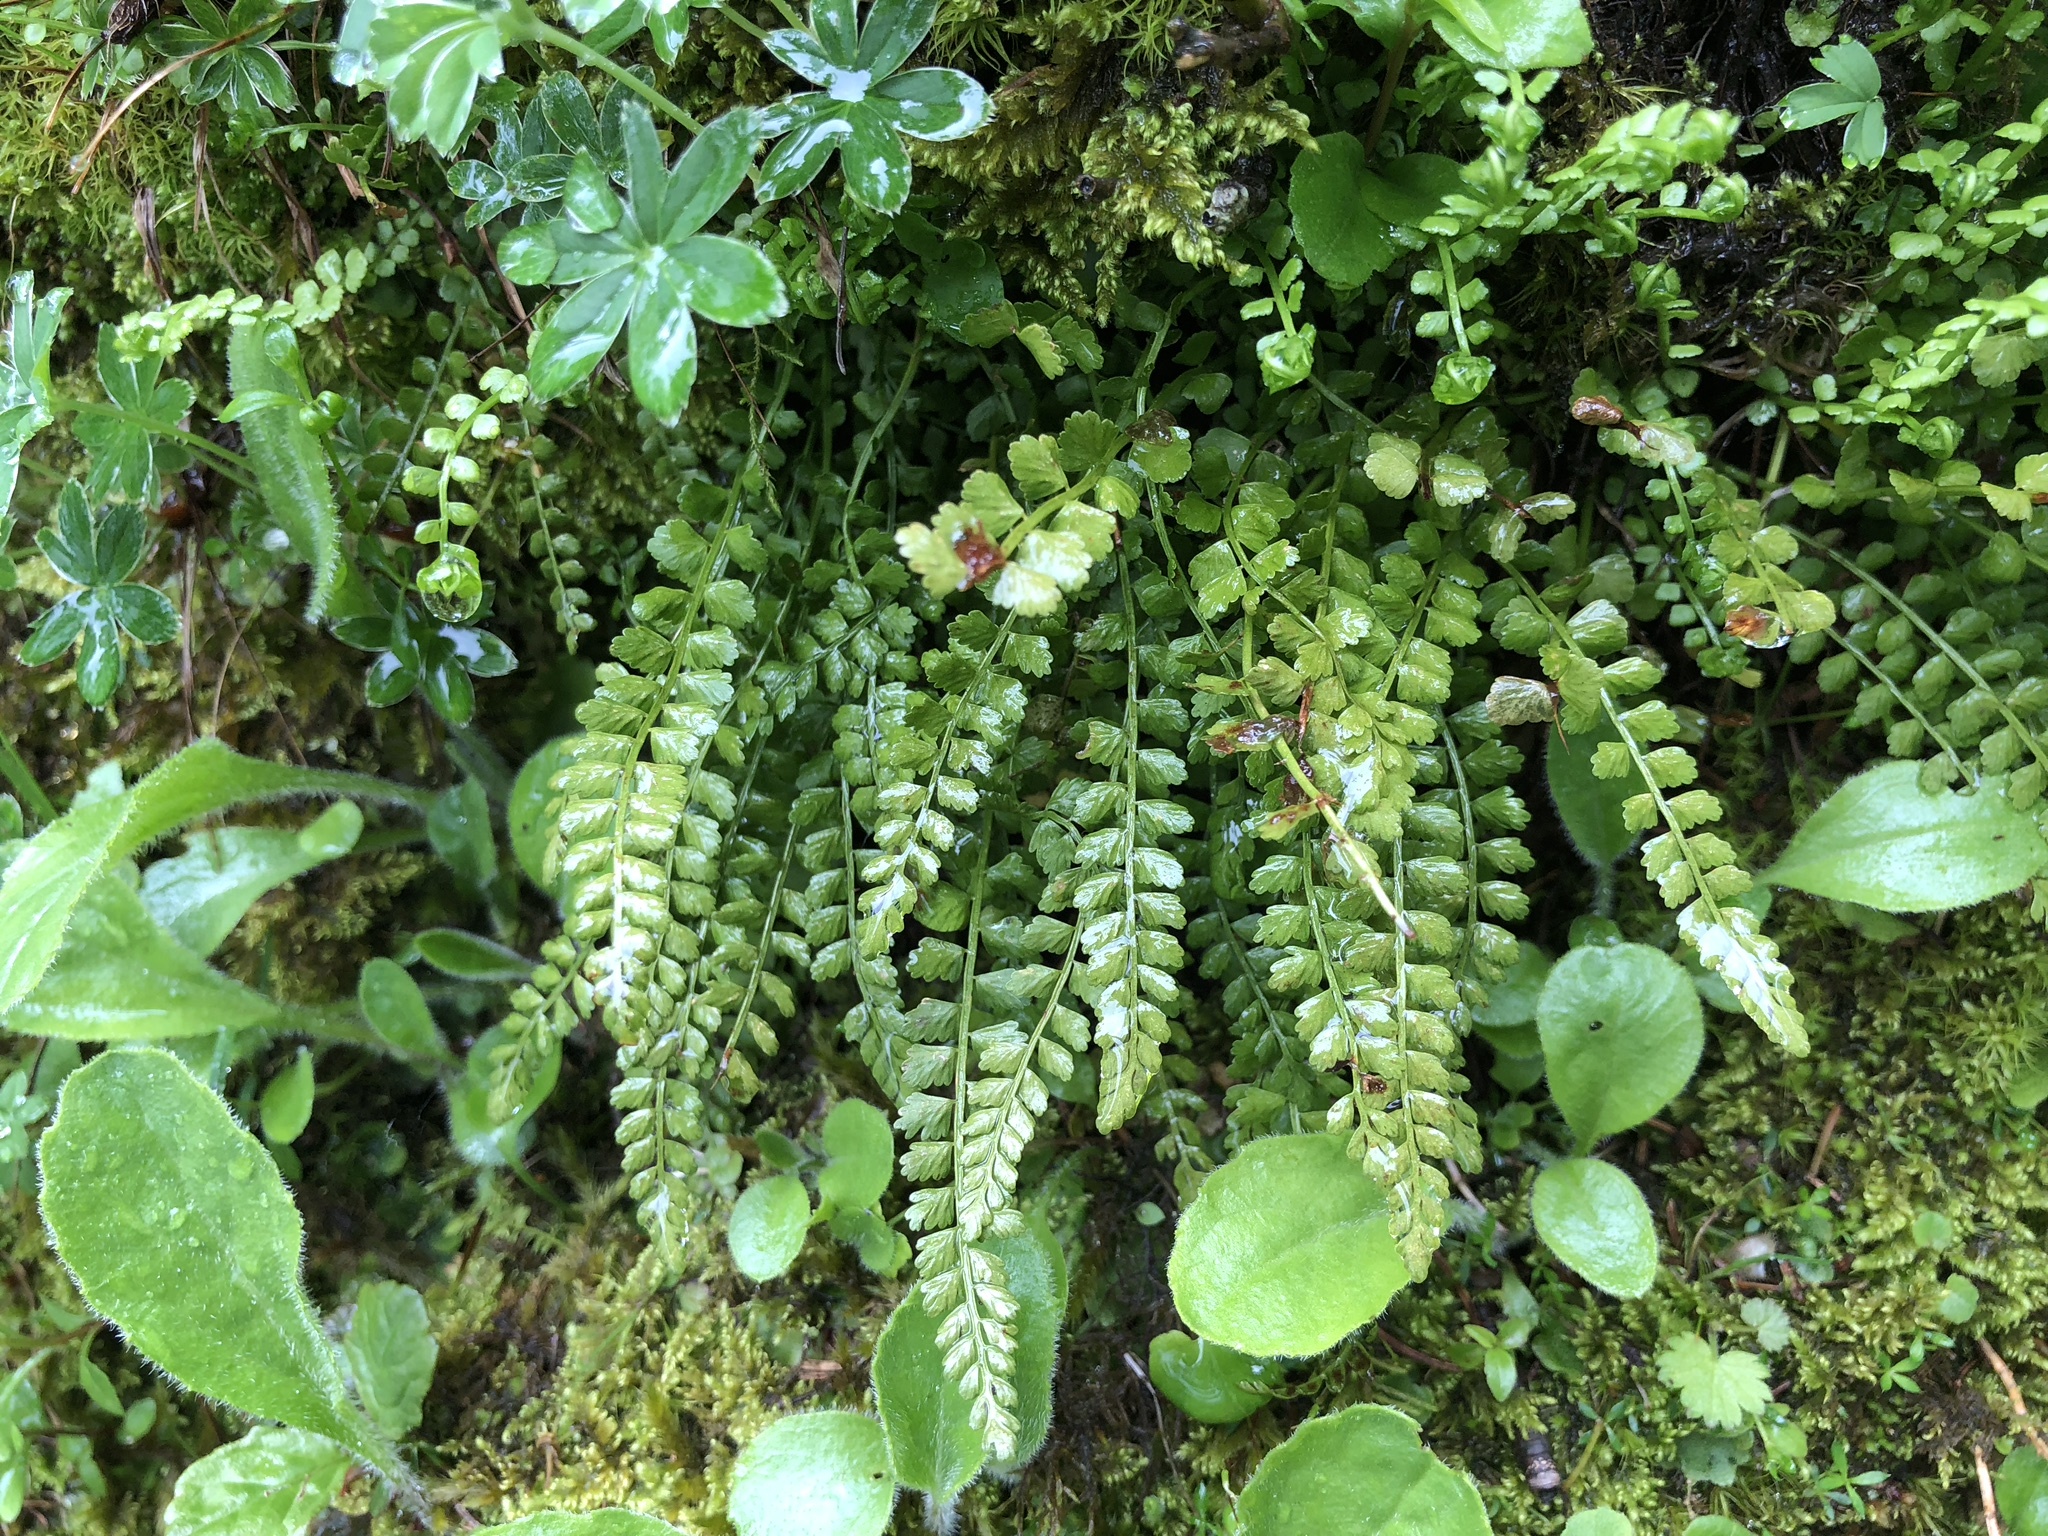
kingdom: Plantae
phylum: Tracheophyta
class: Polypodiopsida
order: Polypodiales
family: Aspleniaceae
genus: Asplenium
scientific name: Asplenium viride
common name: Green spleenwort
